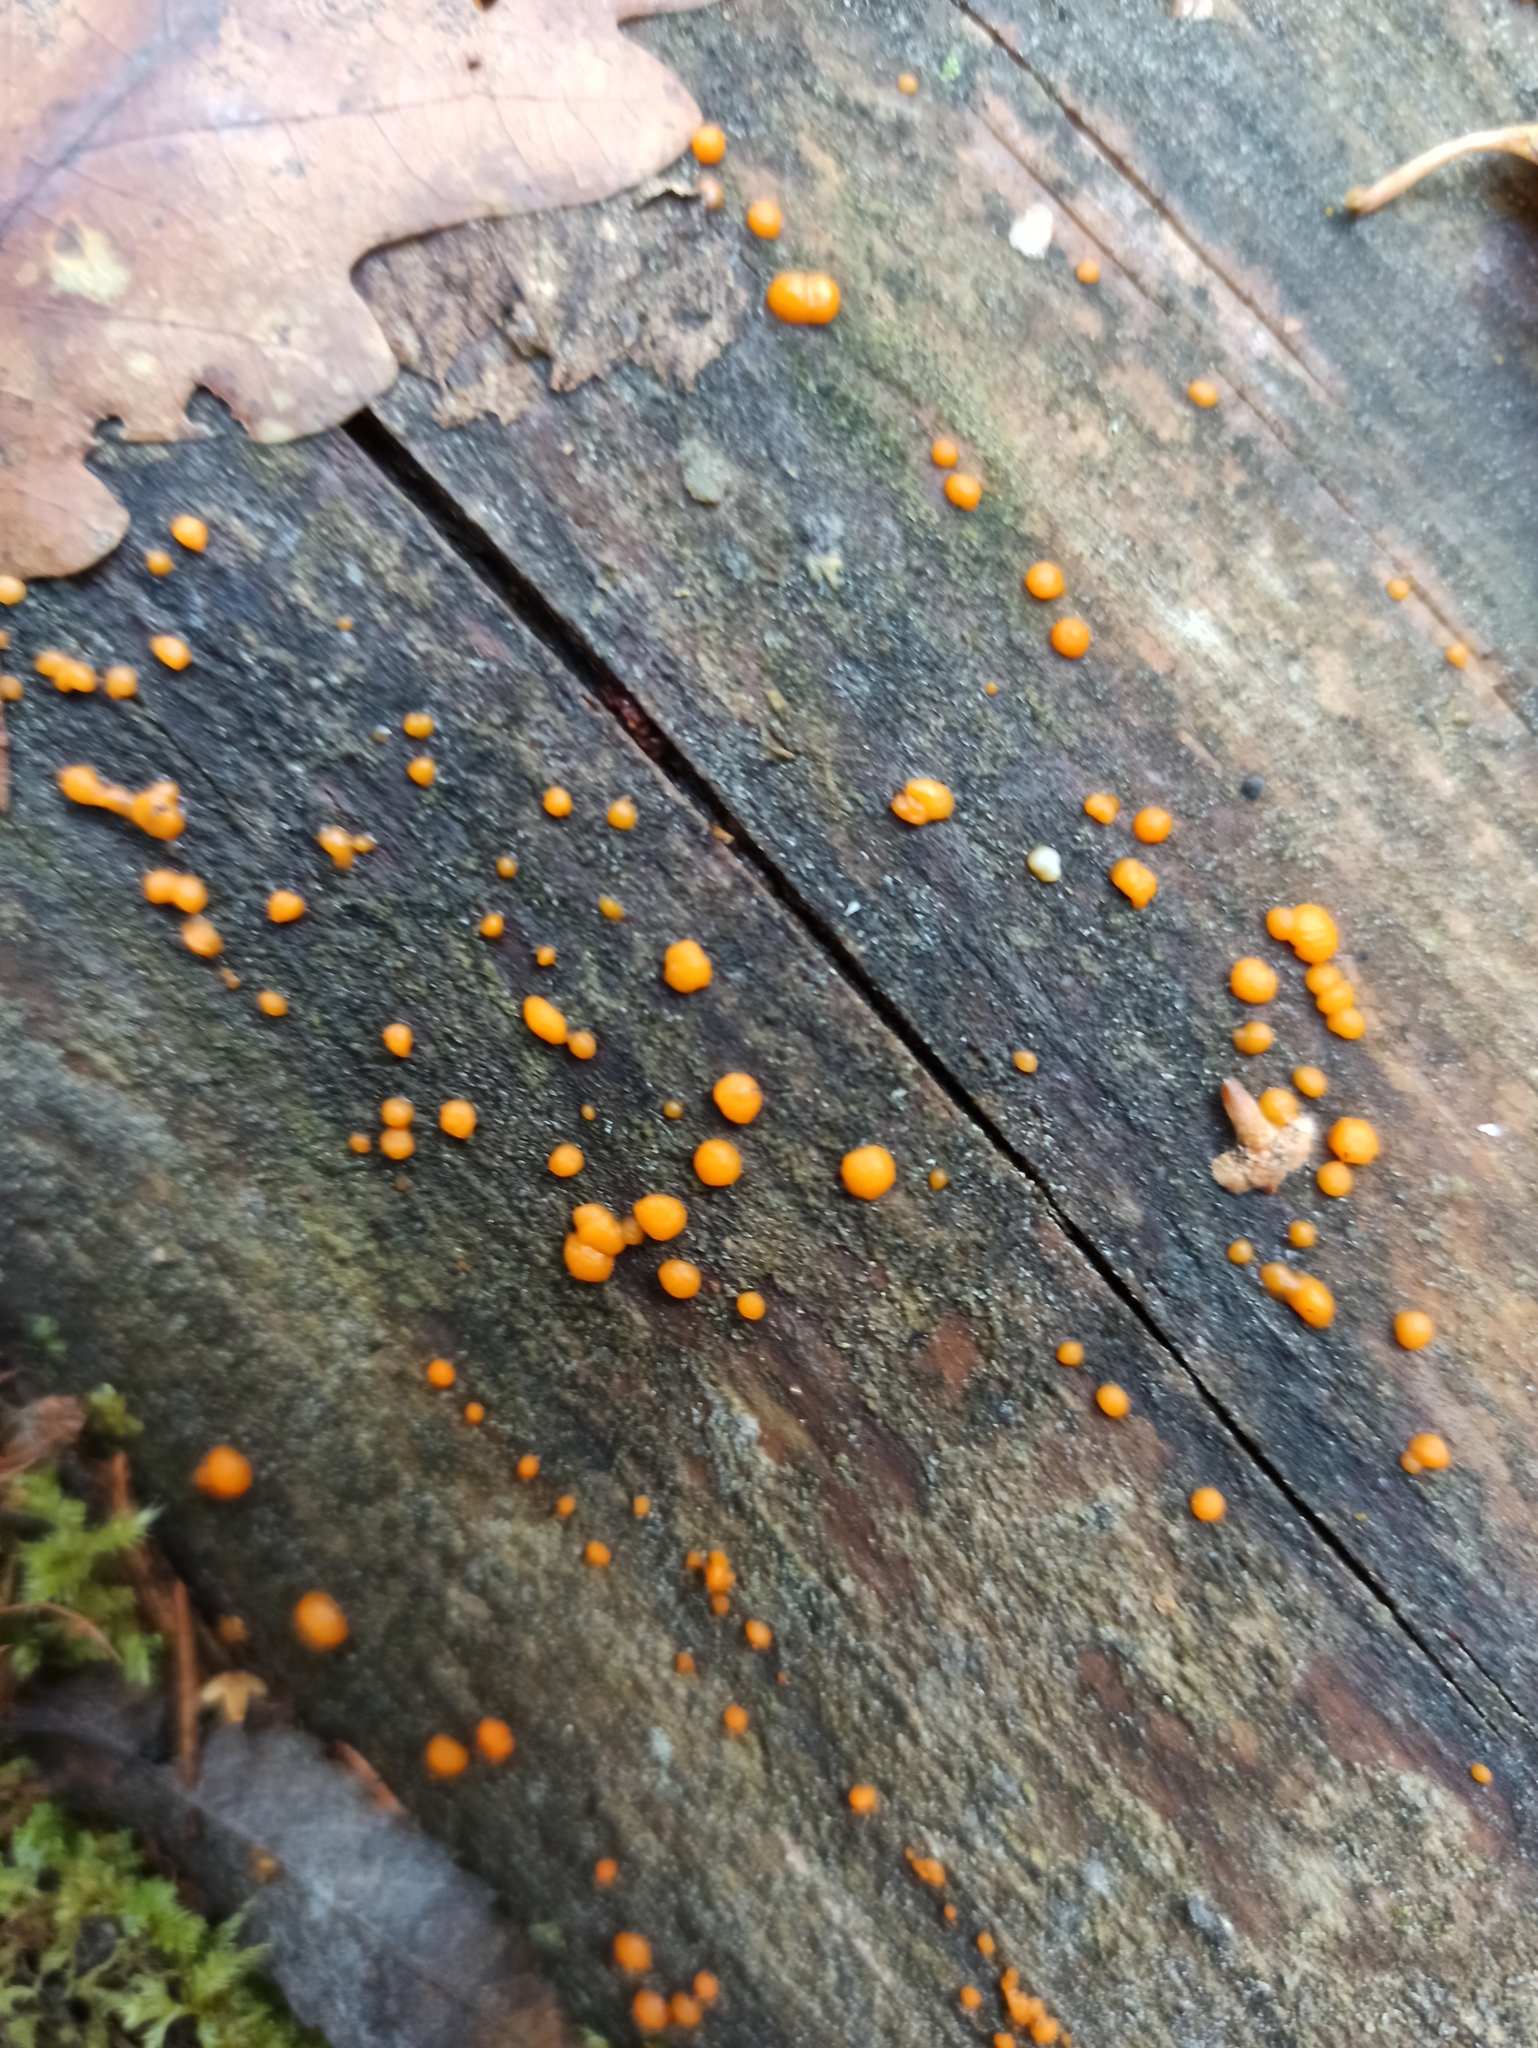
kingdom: Fungi
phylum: Basidiomycota
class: Dacrymycetes
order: Dacrymycetales
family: Dacrymycetaceae
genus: Dacrymyces
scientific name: Dacrymyces stillatus
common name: Common jelly spot
